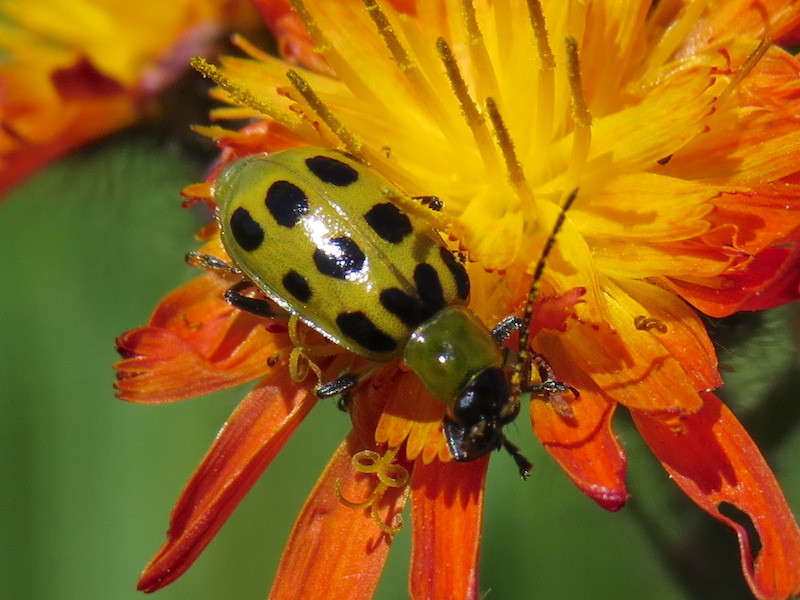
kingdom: Animalia
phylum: Arthropoda
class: Insecta
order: Coleoptera
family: Chrysomelidae
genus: Diabrotica
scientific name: Diabrotica undecimpunctata
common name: Spotted cucumber beetle
